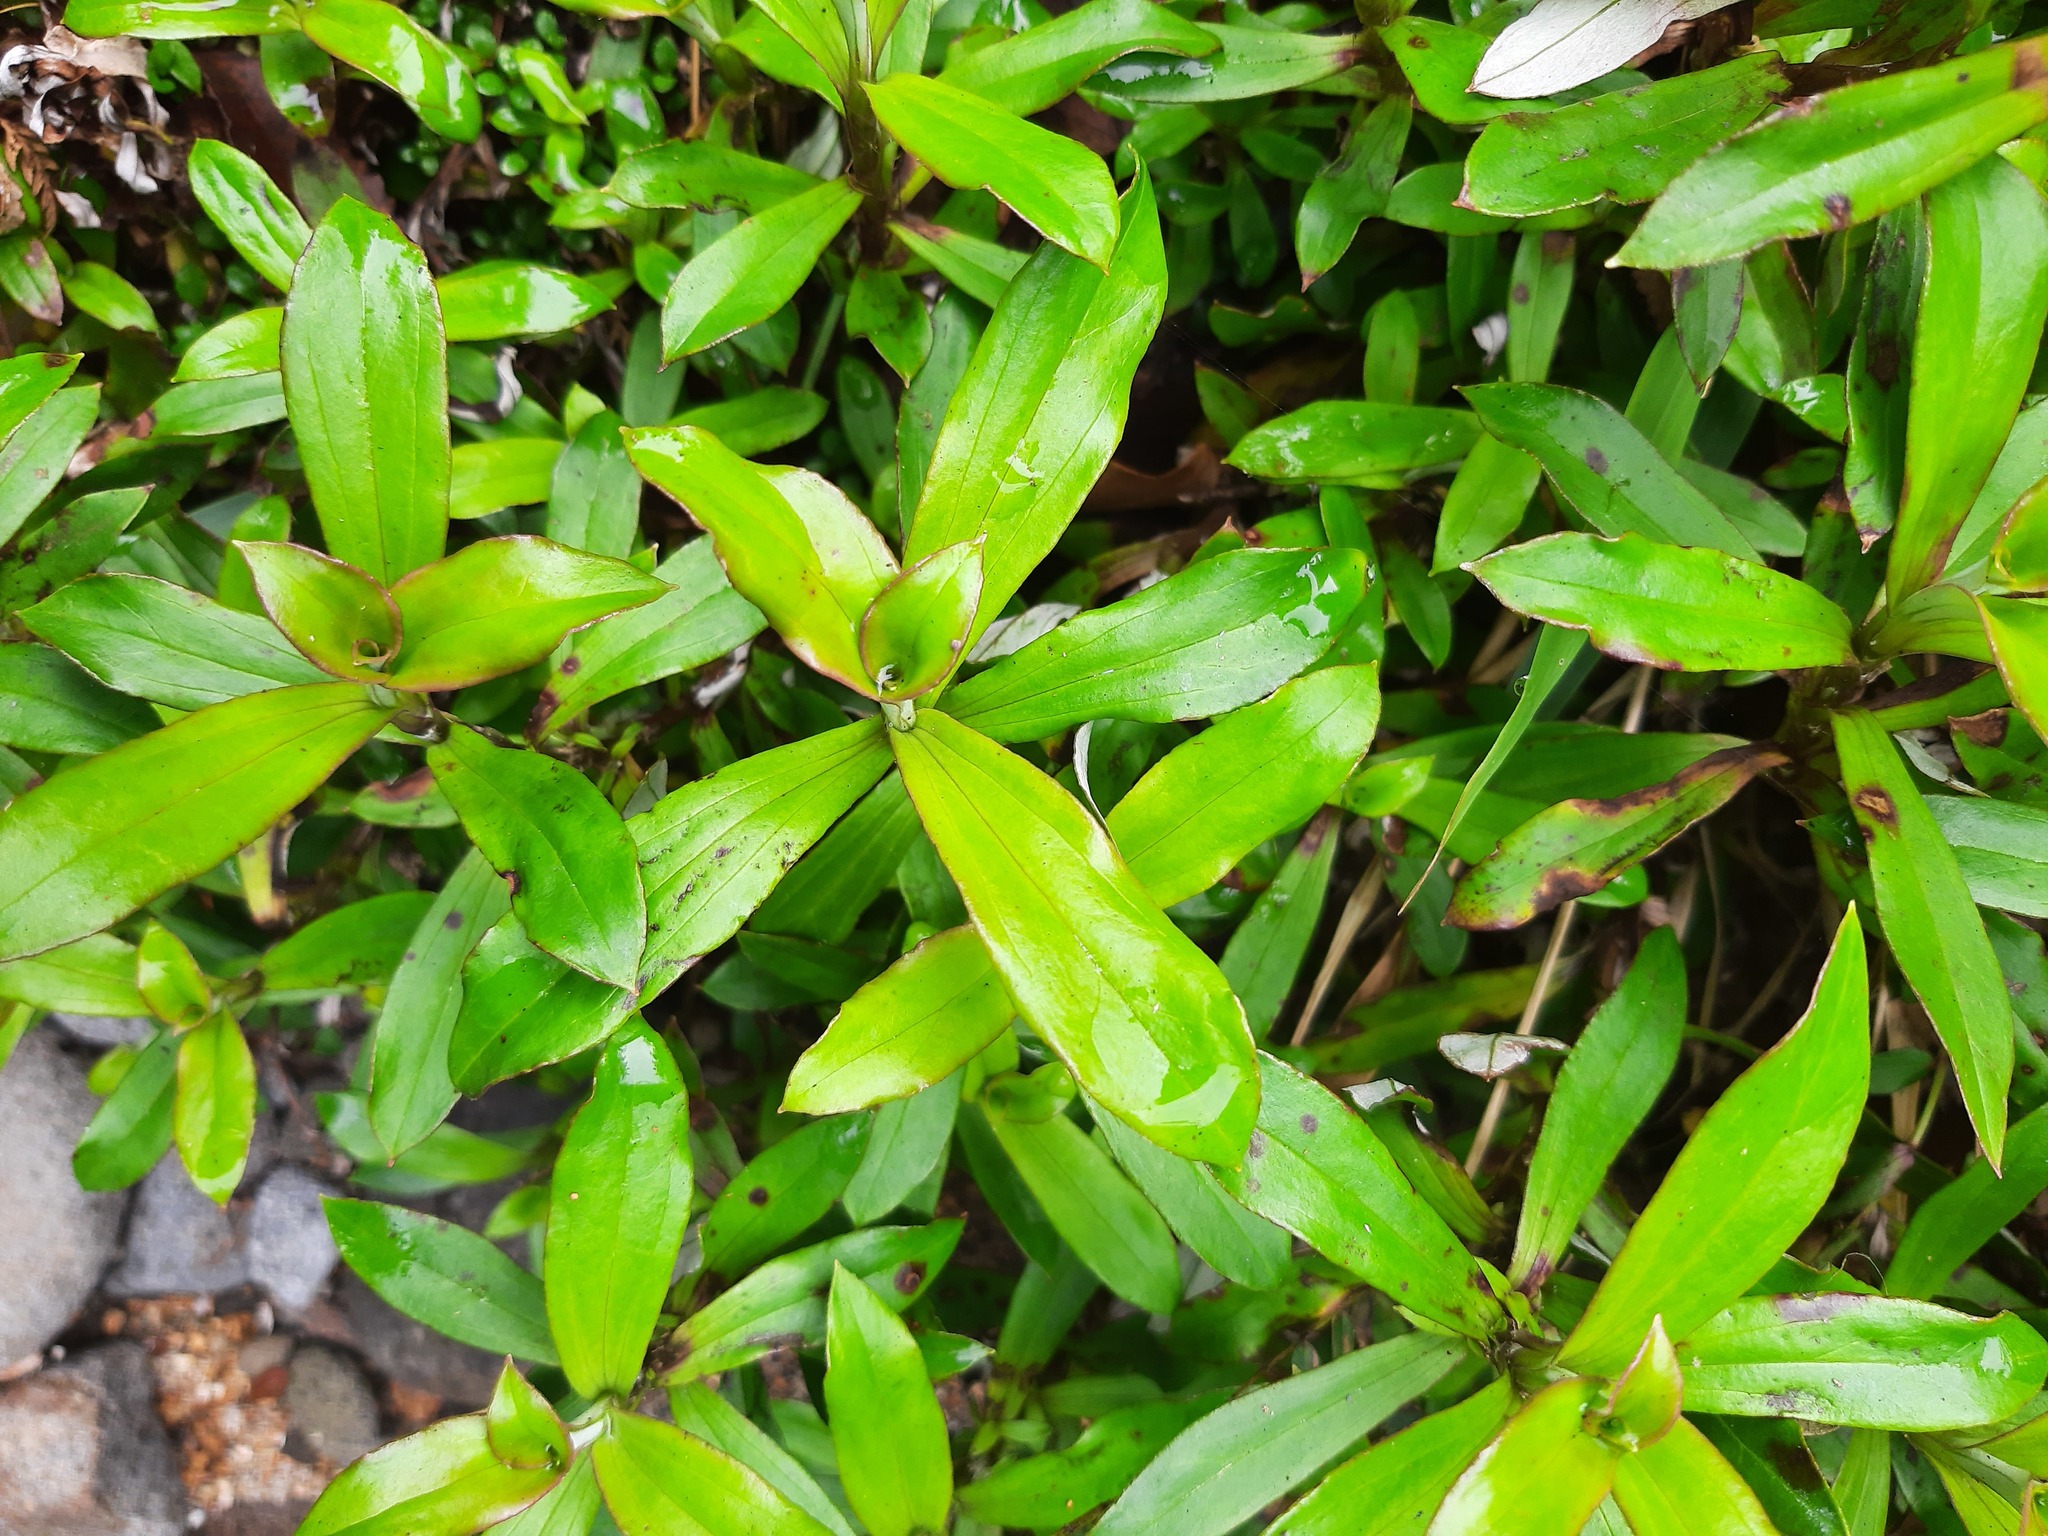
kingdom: Plantae
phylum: Tracheophyta
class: Magnoliopsida
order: Asterales
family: Asteraceae
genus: Anaphalioides
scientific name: Anaphalioides trinervis
